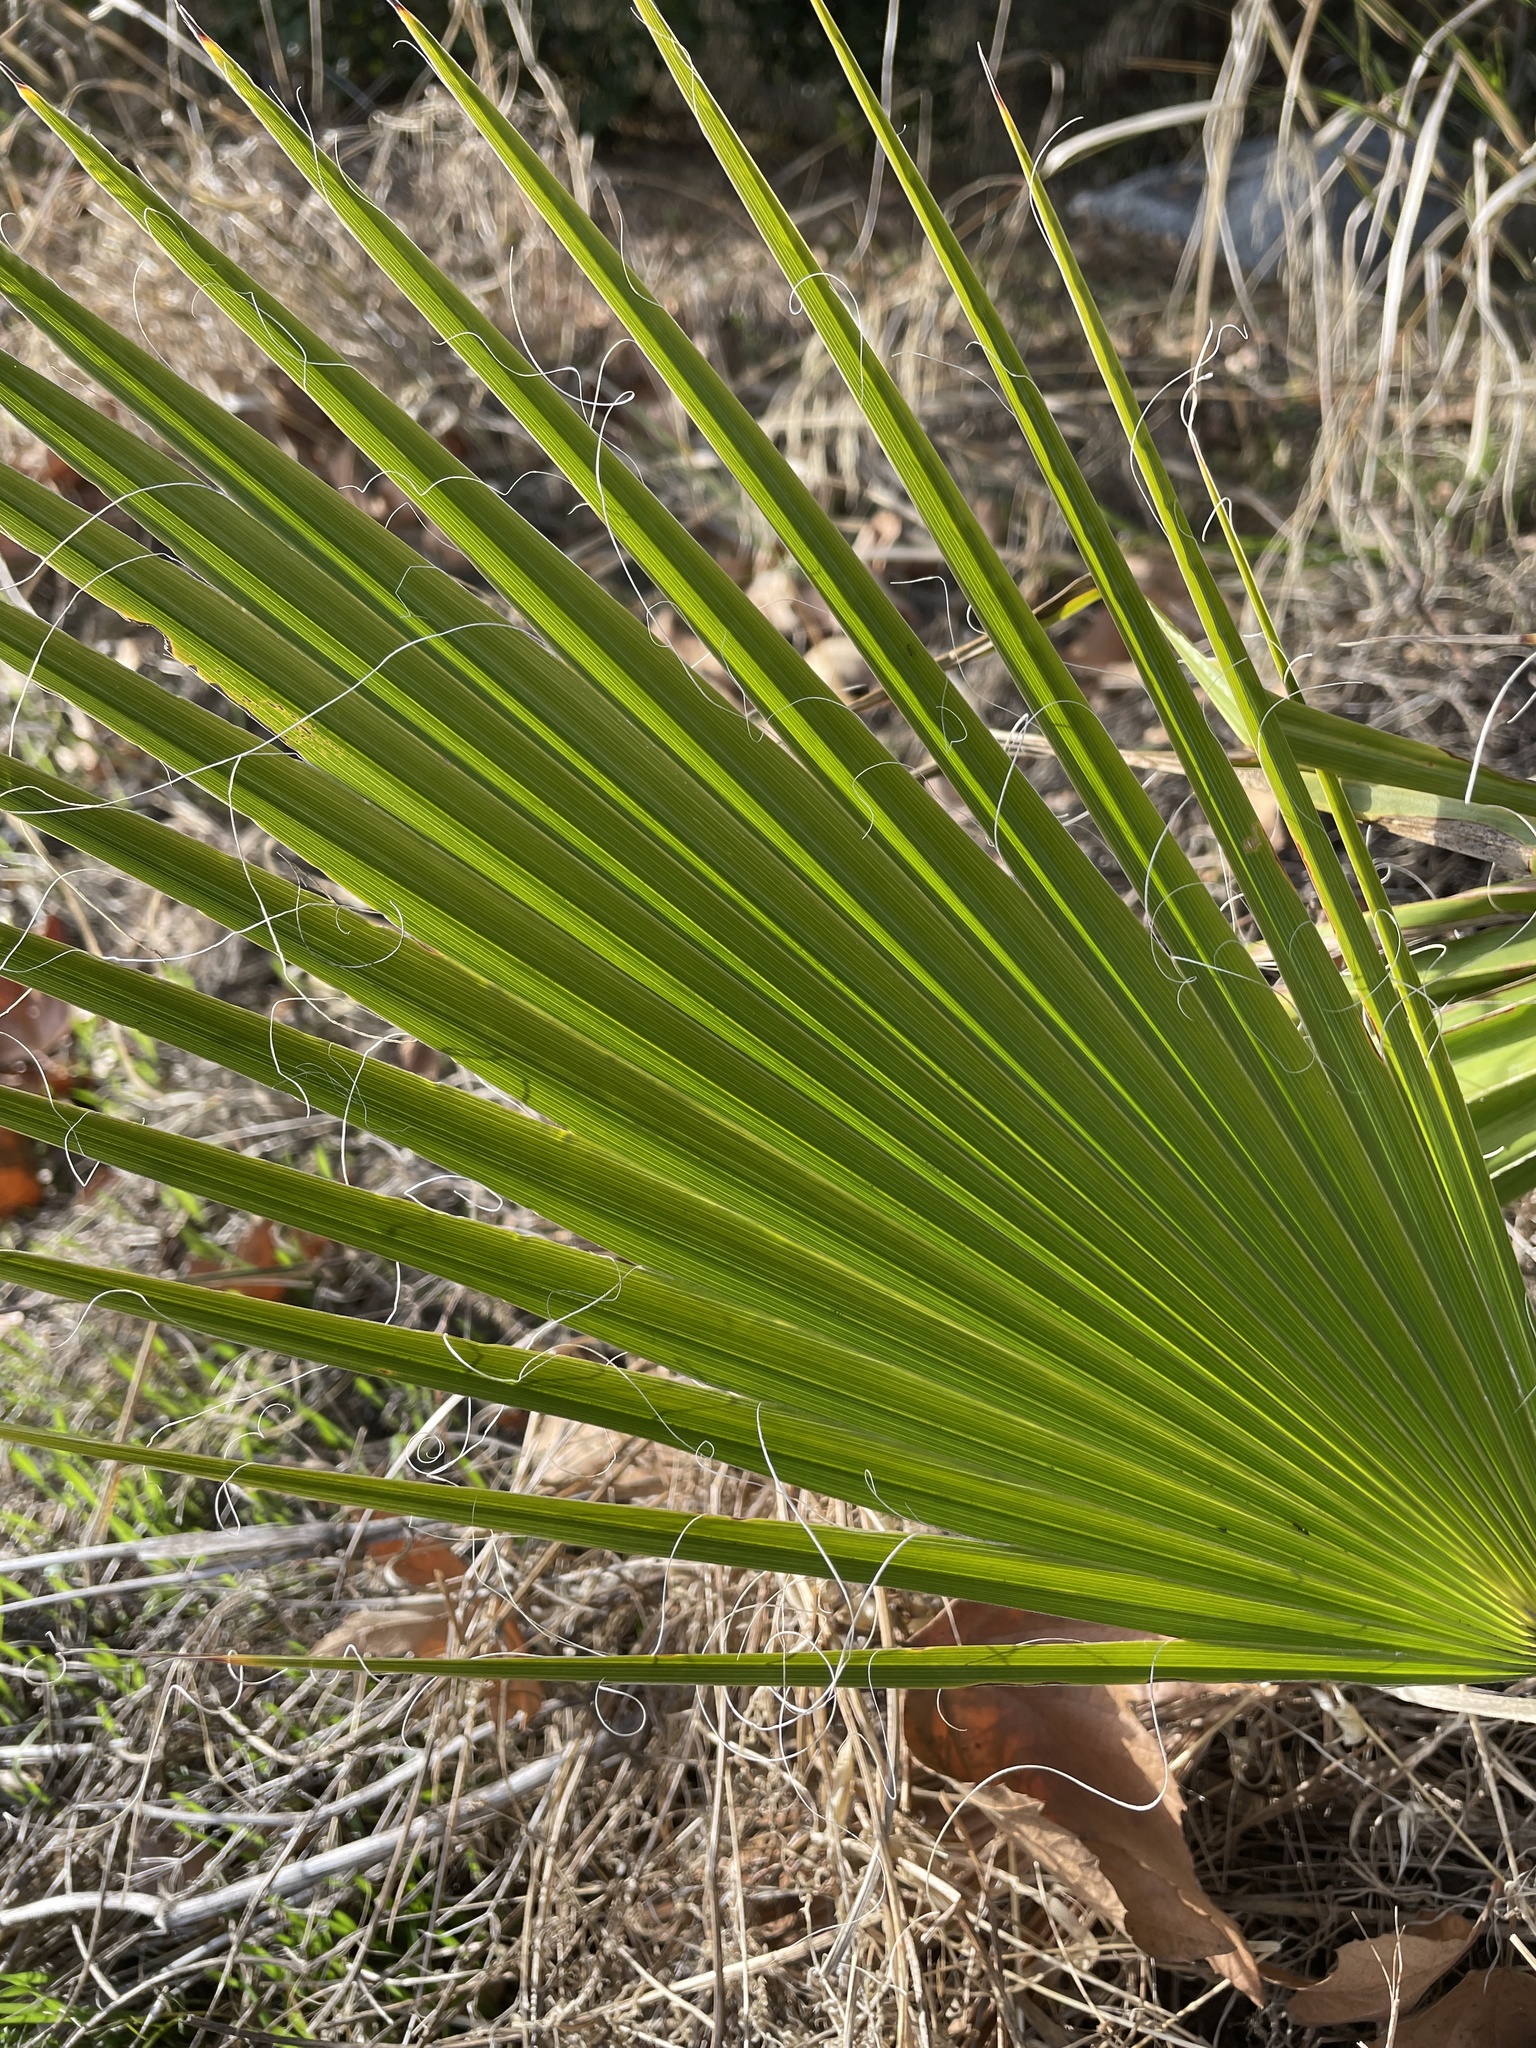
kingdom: Plantae
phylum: Tracheophyta
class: Liliopsida
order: Arecales
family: Arecaceae
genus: Washingtonia
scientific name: Washingtonia robusta
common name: Mexican fan palm
